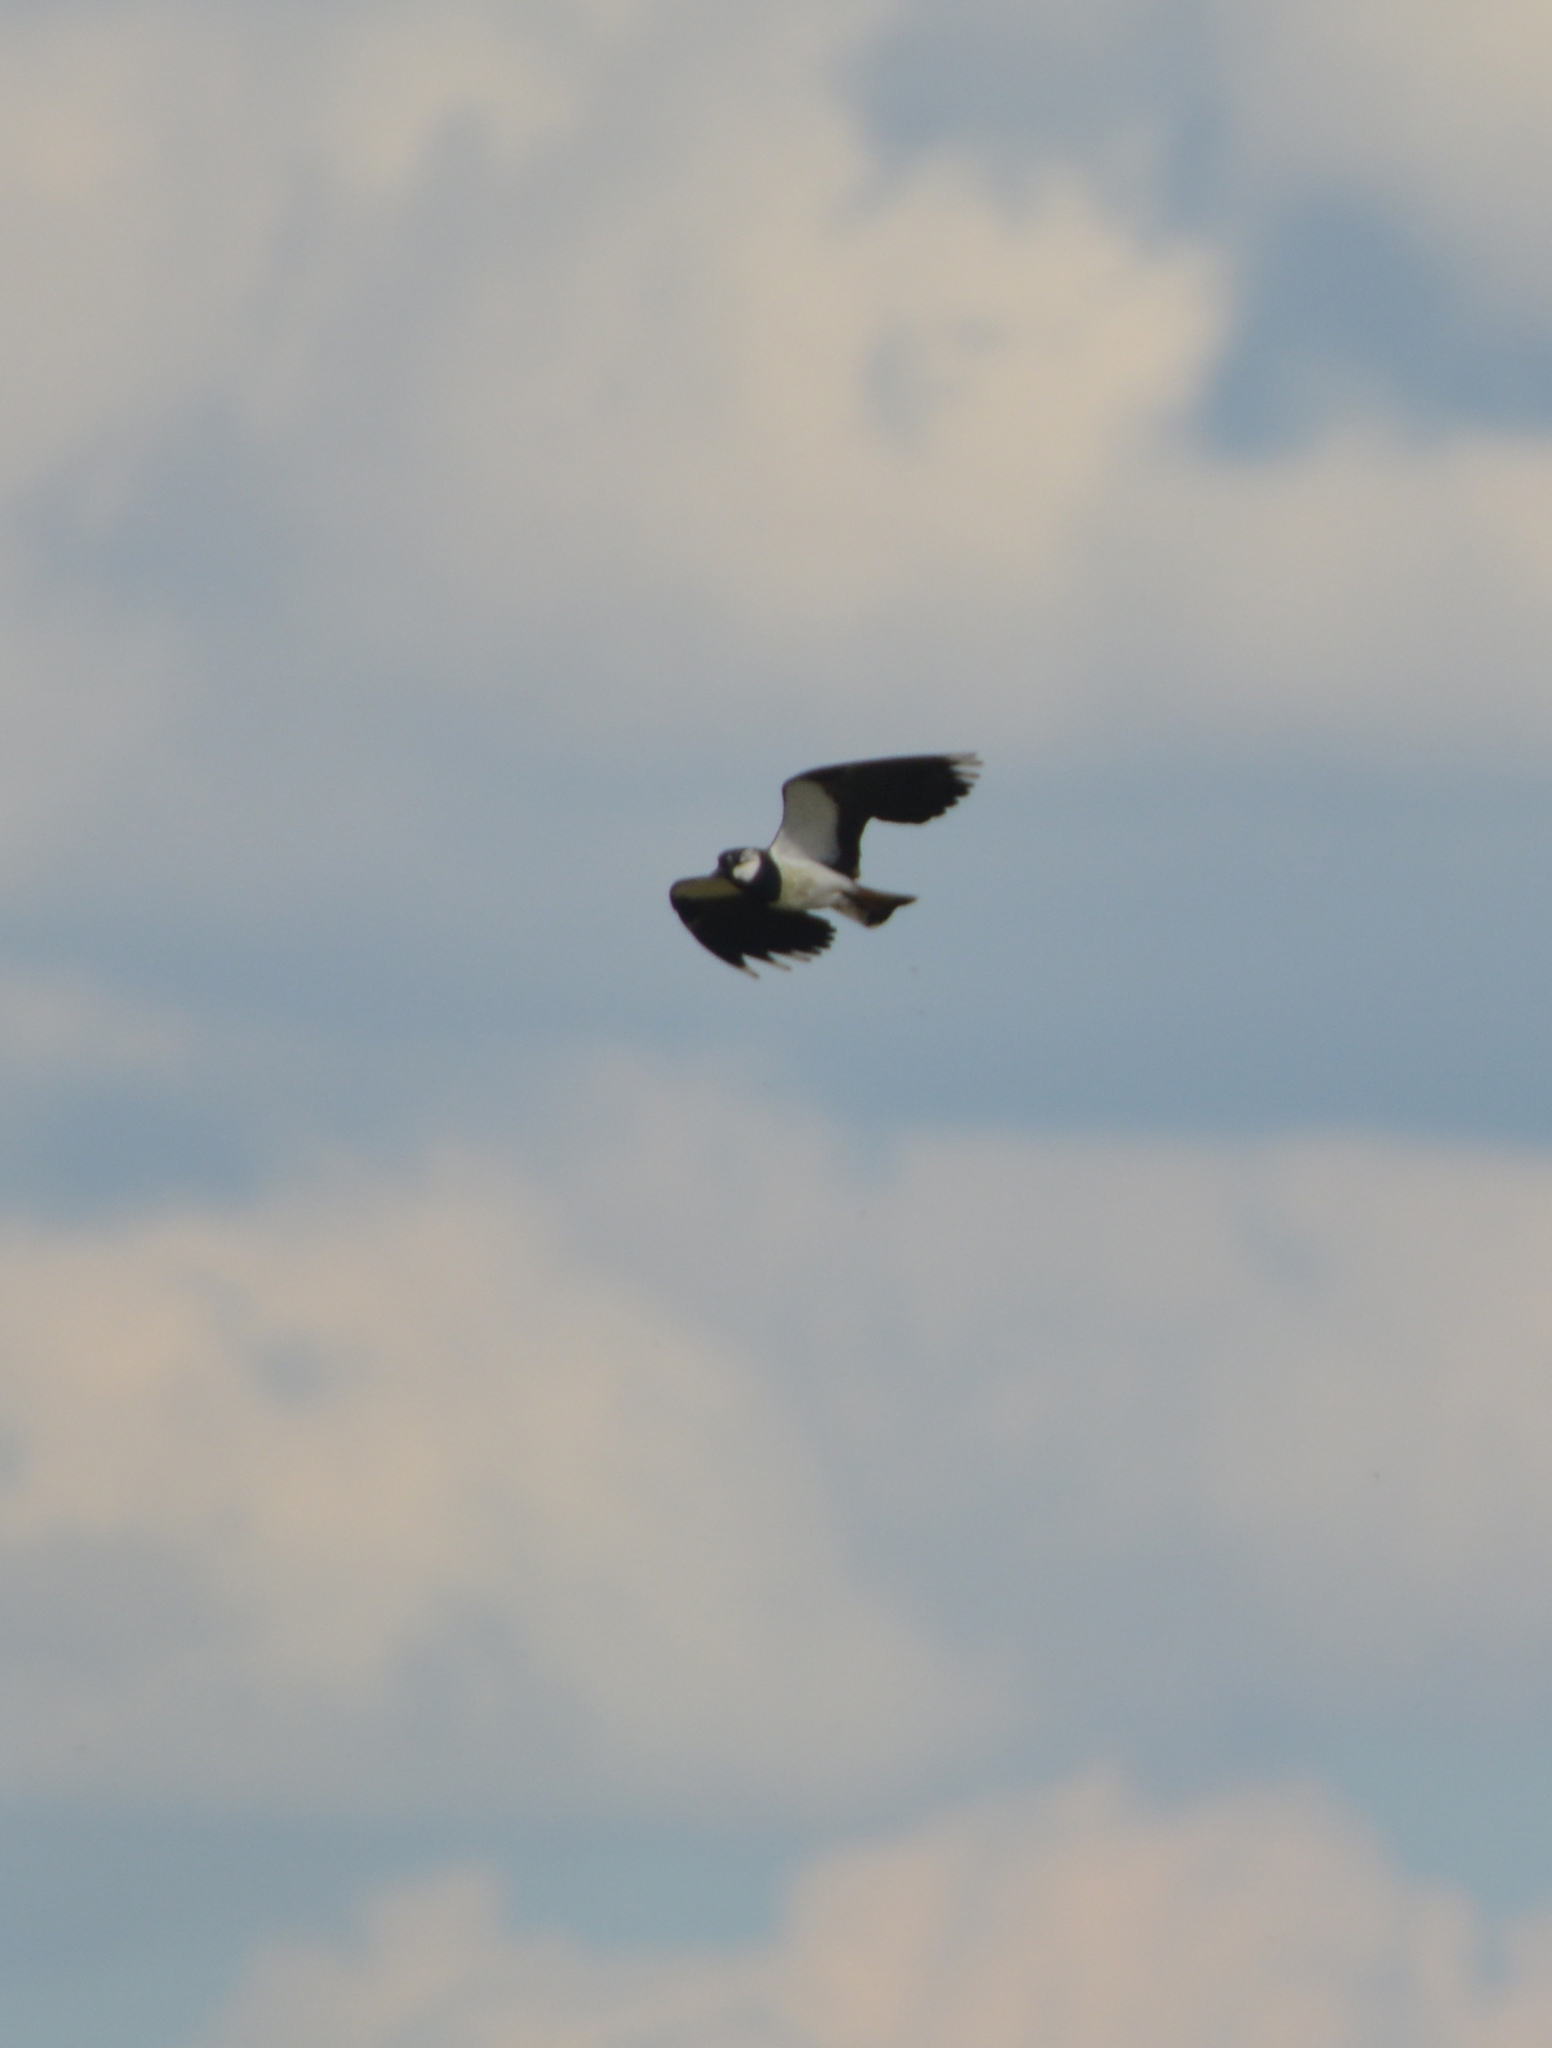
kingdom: Animalia
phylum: Chordata
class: Aves
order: Charadriiformes
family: Charadriidae
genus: Vanellus
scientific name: Vanellus vanellus
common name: Northern lapwing
